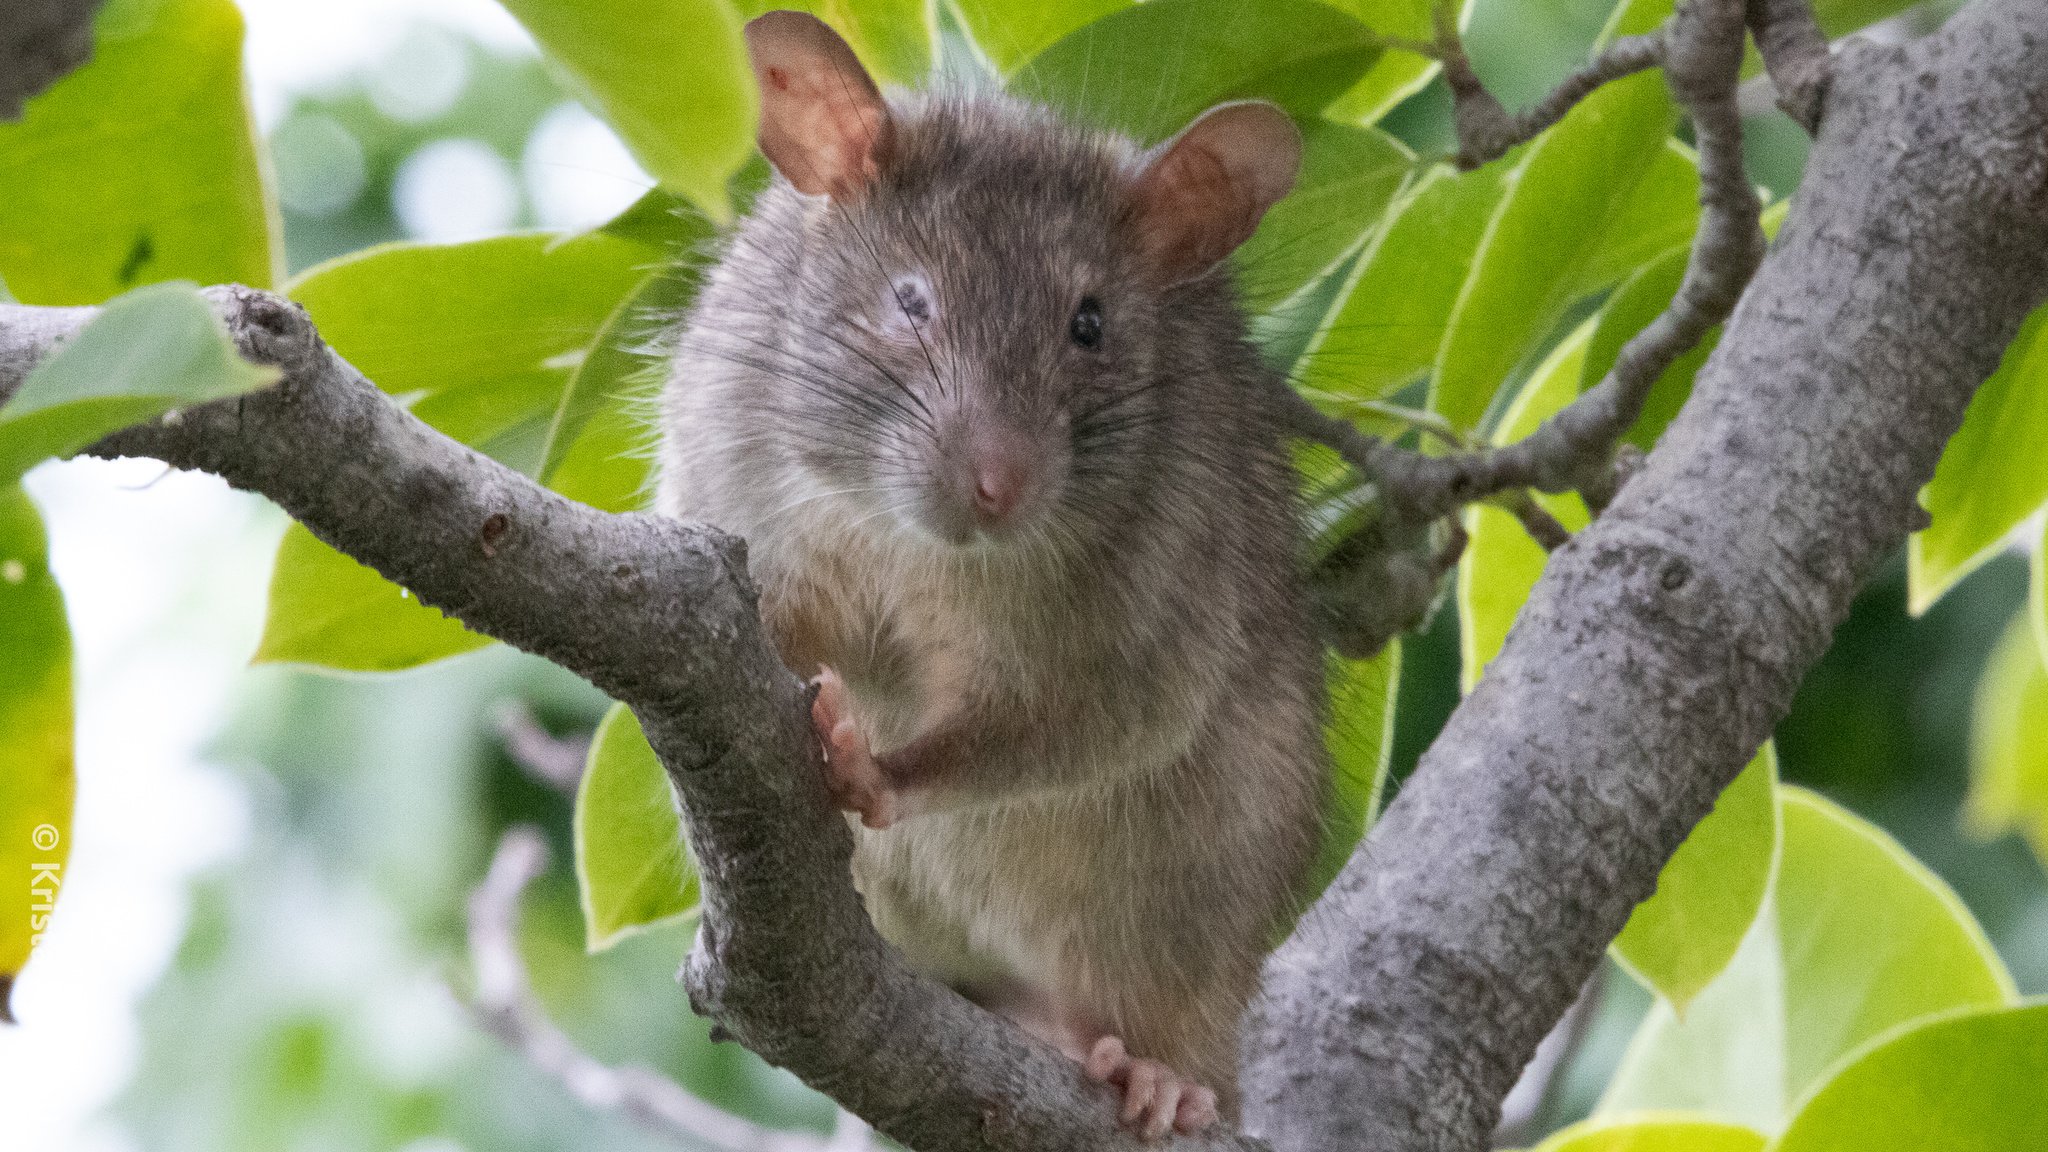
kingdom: Animalia
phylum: Chordata
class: Mammalia
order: Rodentia
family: Muridae
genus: Rattus
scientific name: Rattus rattus
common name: Black rat
